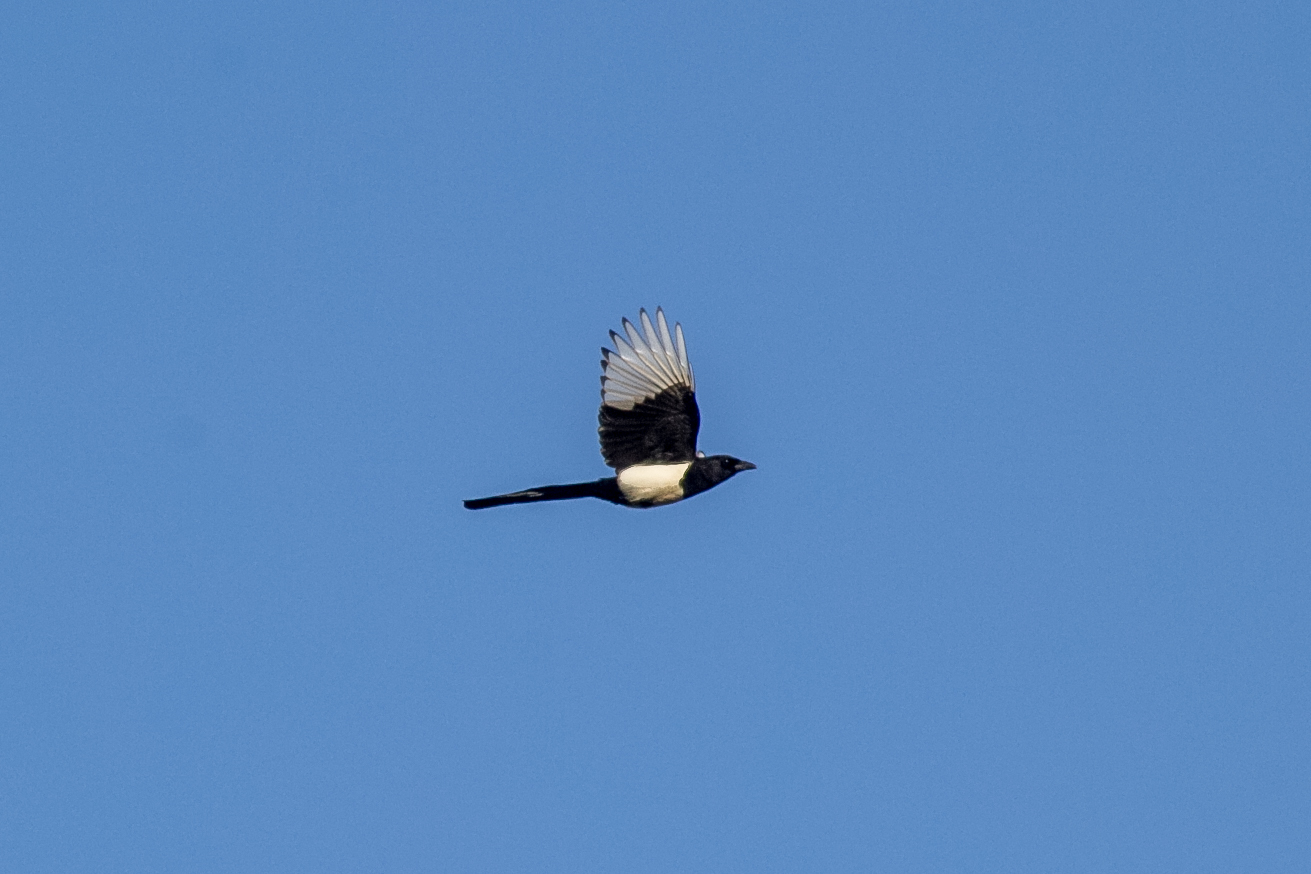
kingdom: Animalia
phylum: Chordata
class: Aves
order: Passeriformes
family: Corvidae
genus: Pica
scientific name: Pica pica
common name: Eurasian magpie
